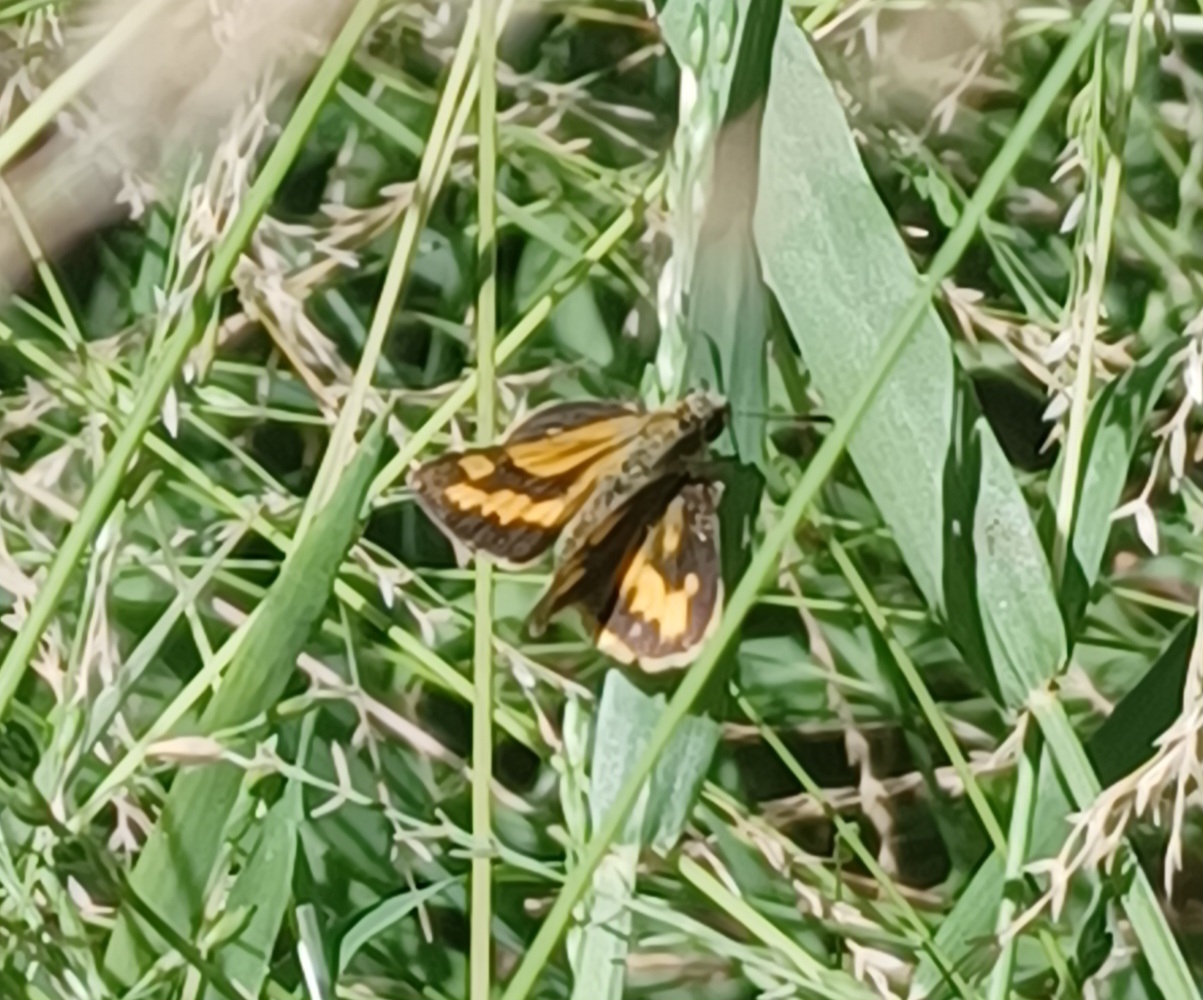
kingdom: Animalia
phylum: Arthropoda
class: Insecta
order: Lepidoptera
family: Hesperiidae
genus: Ocybadistes
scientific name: Ocybadistes walkeri
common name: Yellow-banded dart
